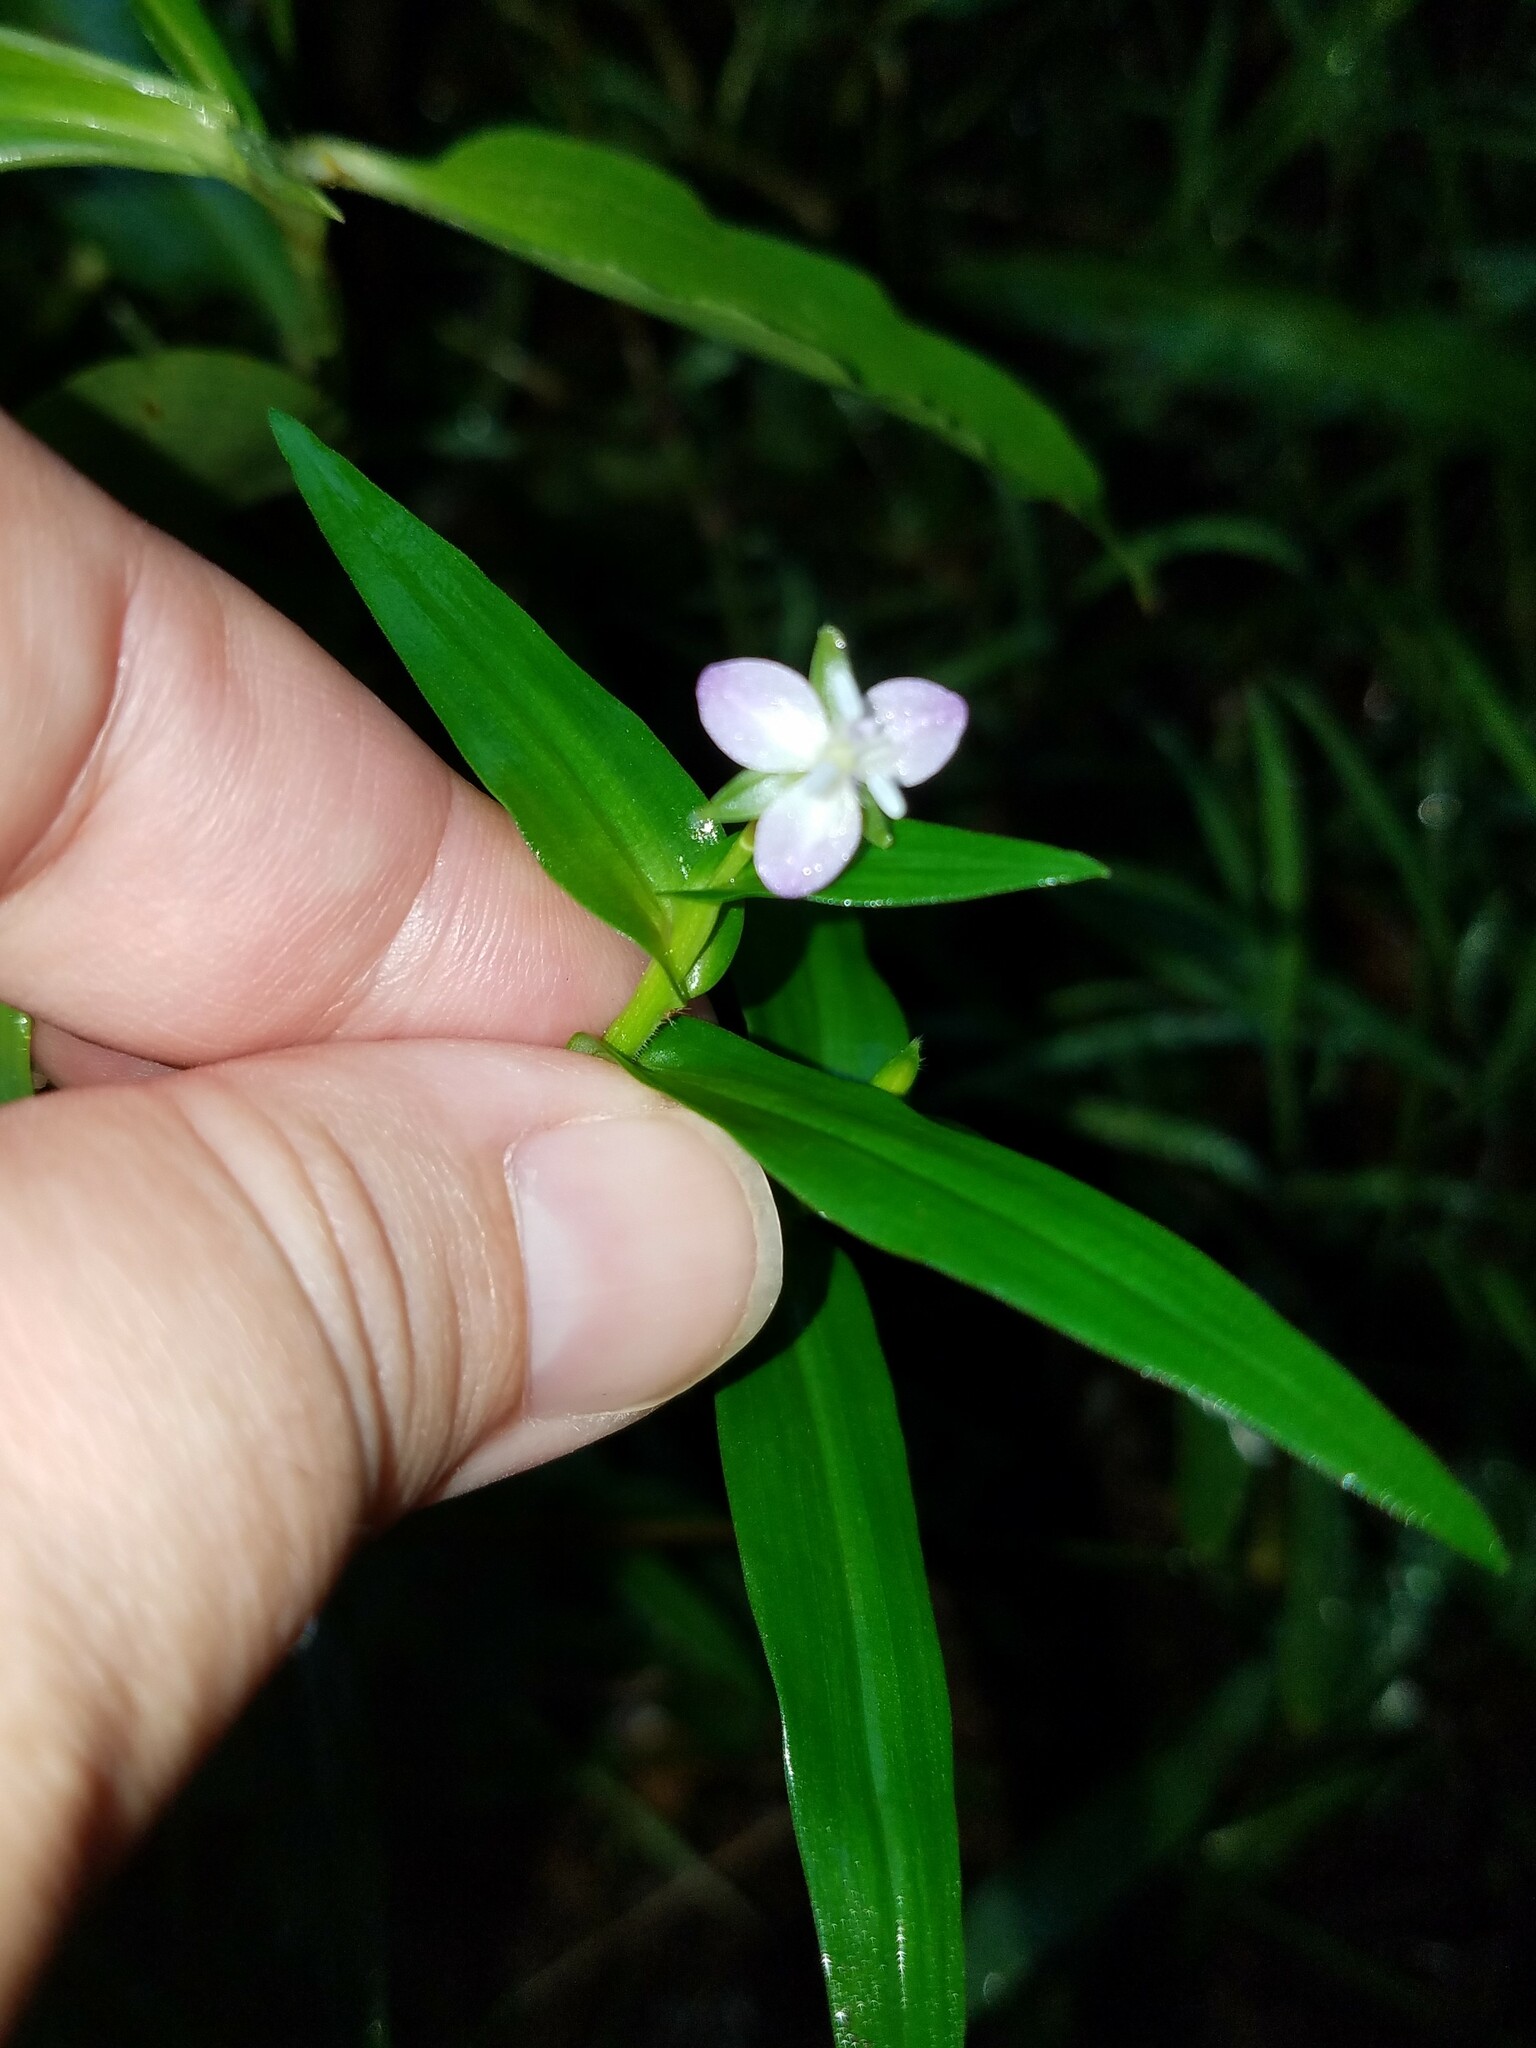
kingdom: Plantae
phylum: Tracheophyta
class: Liliopsida
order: Commelinales
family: Commelinaceae
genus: Murdannia
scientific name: Murdannia keisak
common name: Wartremoving herb
